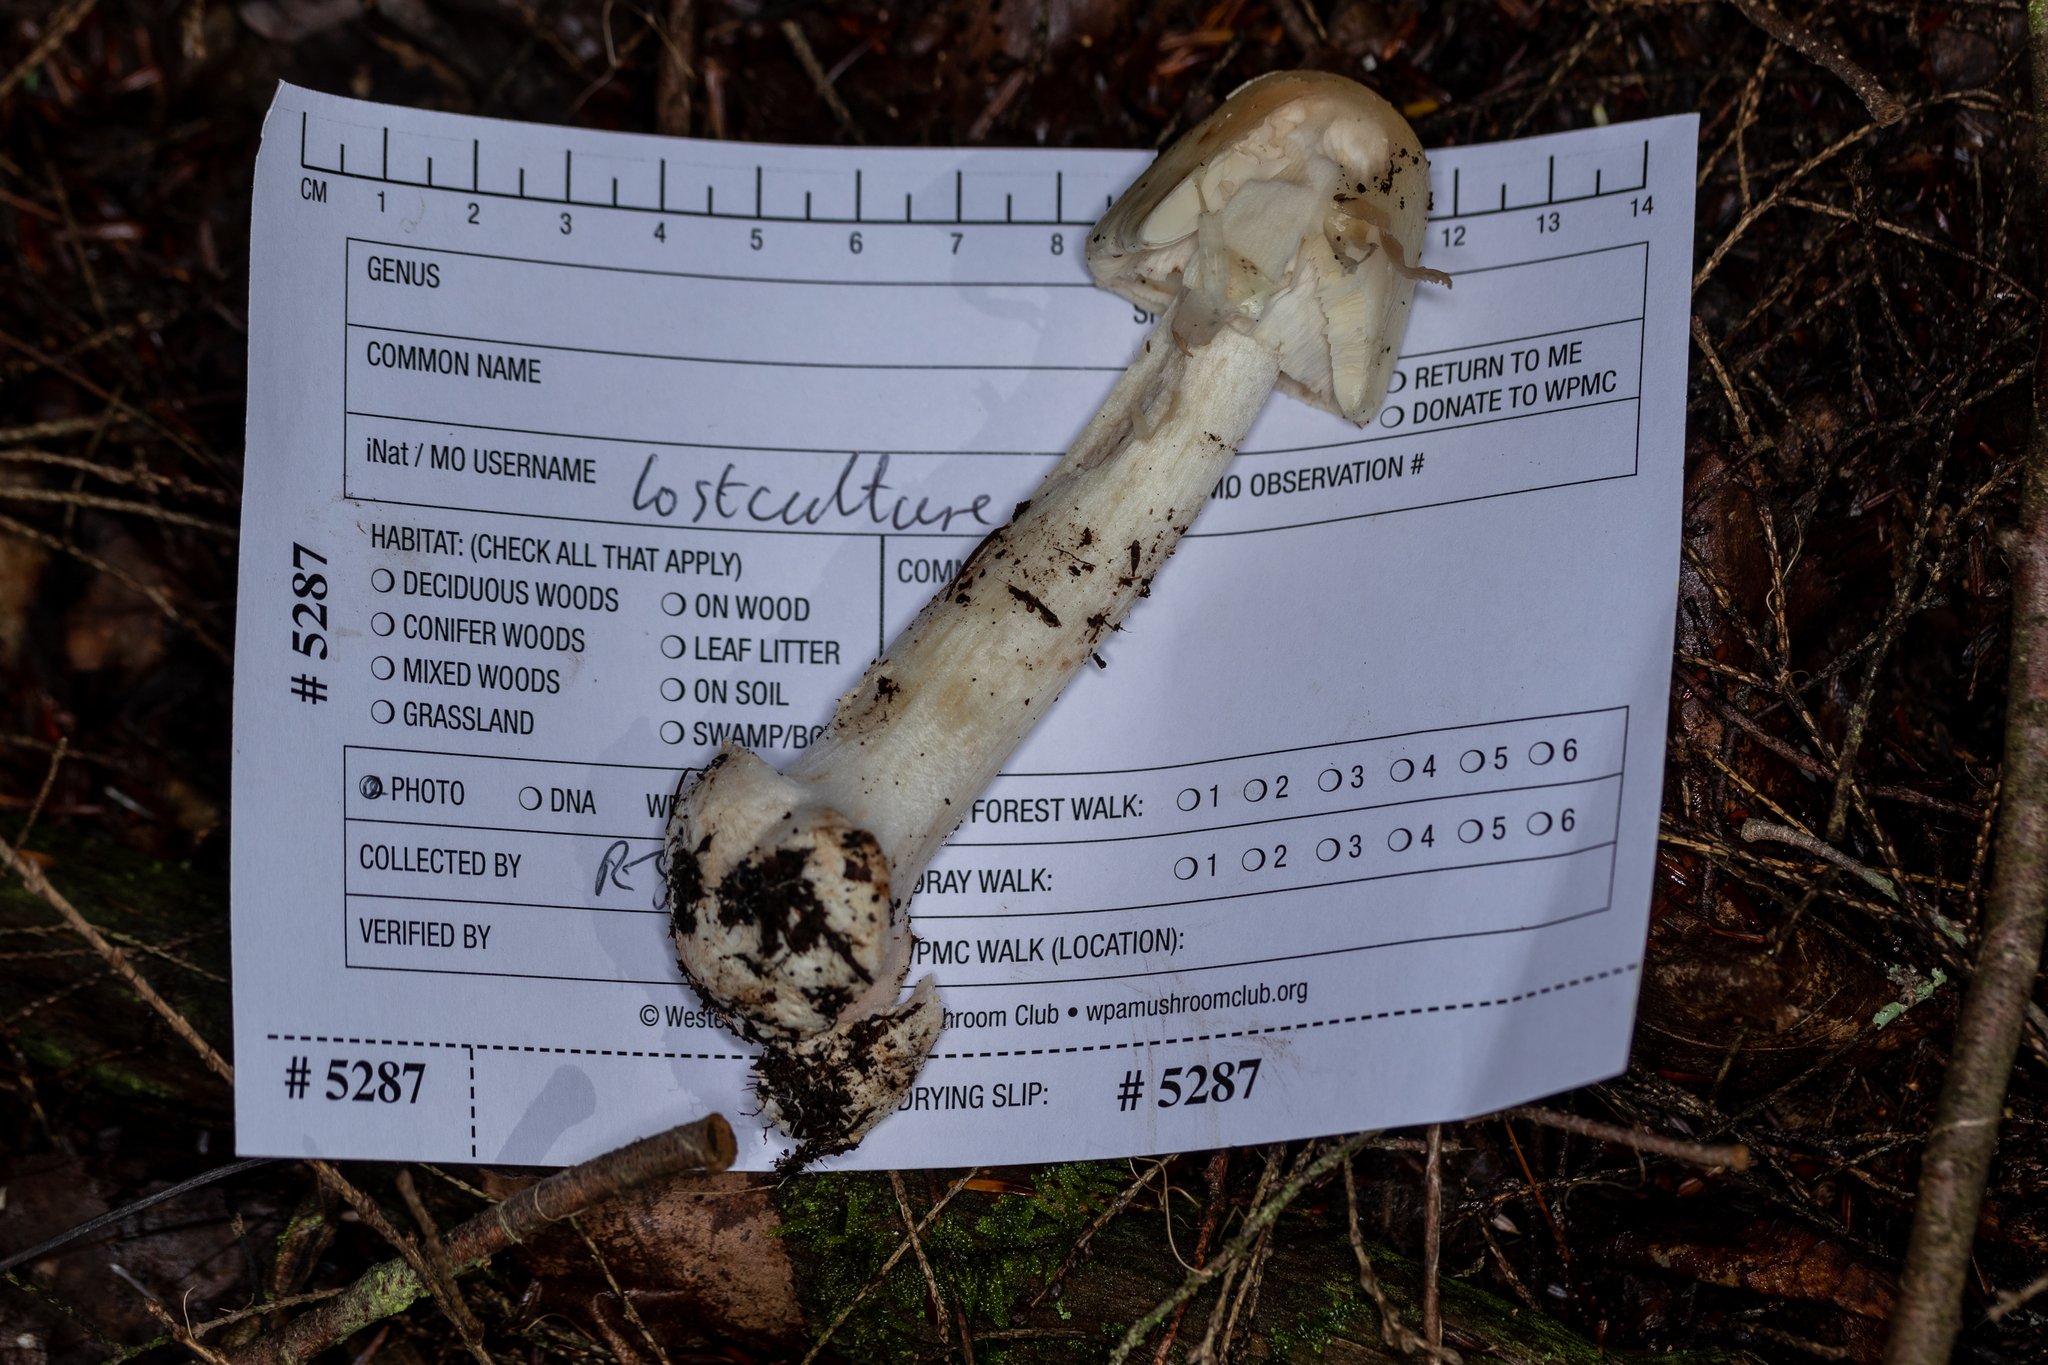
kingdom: Fungi
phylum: Basidiomycota
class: Agaricomycetes
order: Agaricales
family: Amanitaceae
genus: Amanita
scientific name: Amanita brunnescens
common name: Brown american star-footed amanita
